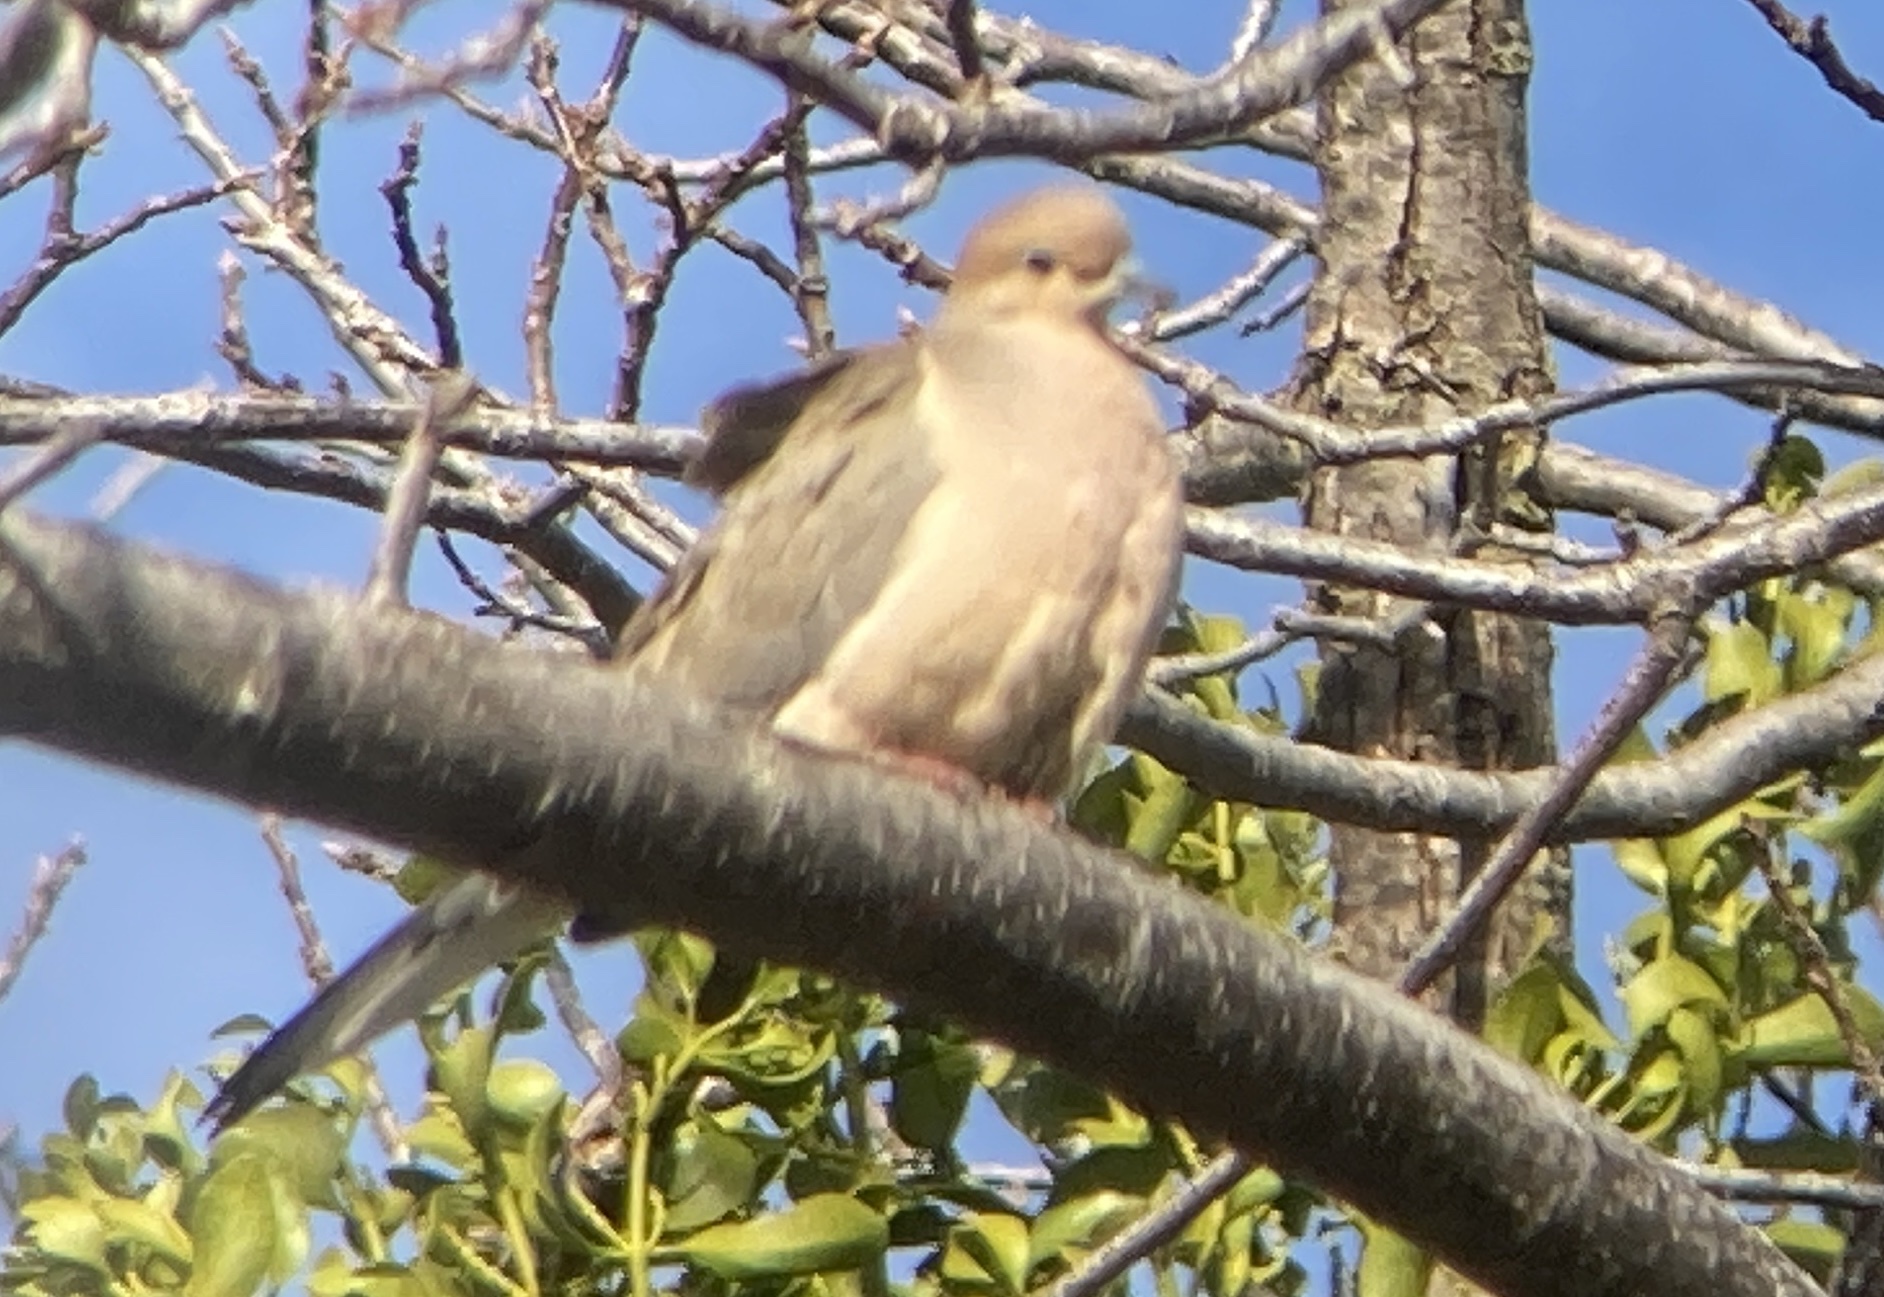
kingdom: Animalia
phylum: Chordata
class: Aves
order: Columbiformes
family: Columbidae
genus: Zenaida
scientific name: Zenaida macroura
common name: Mourning dove
